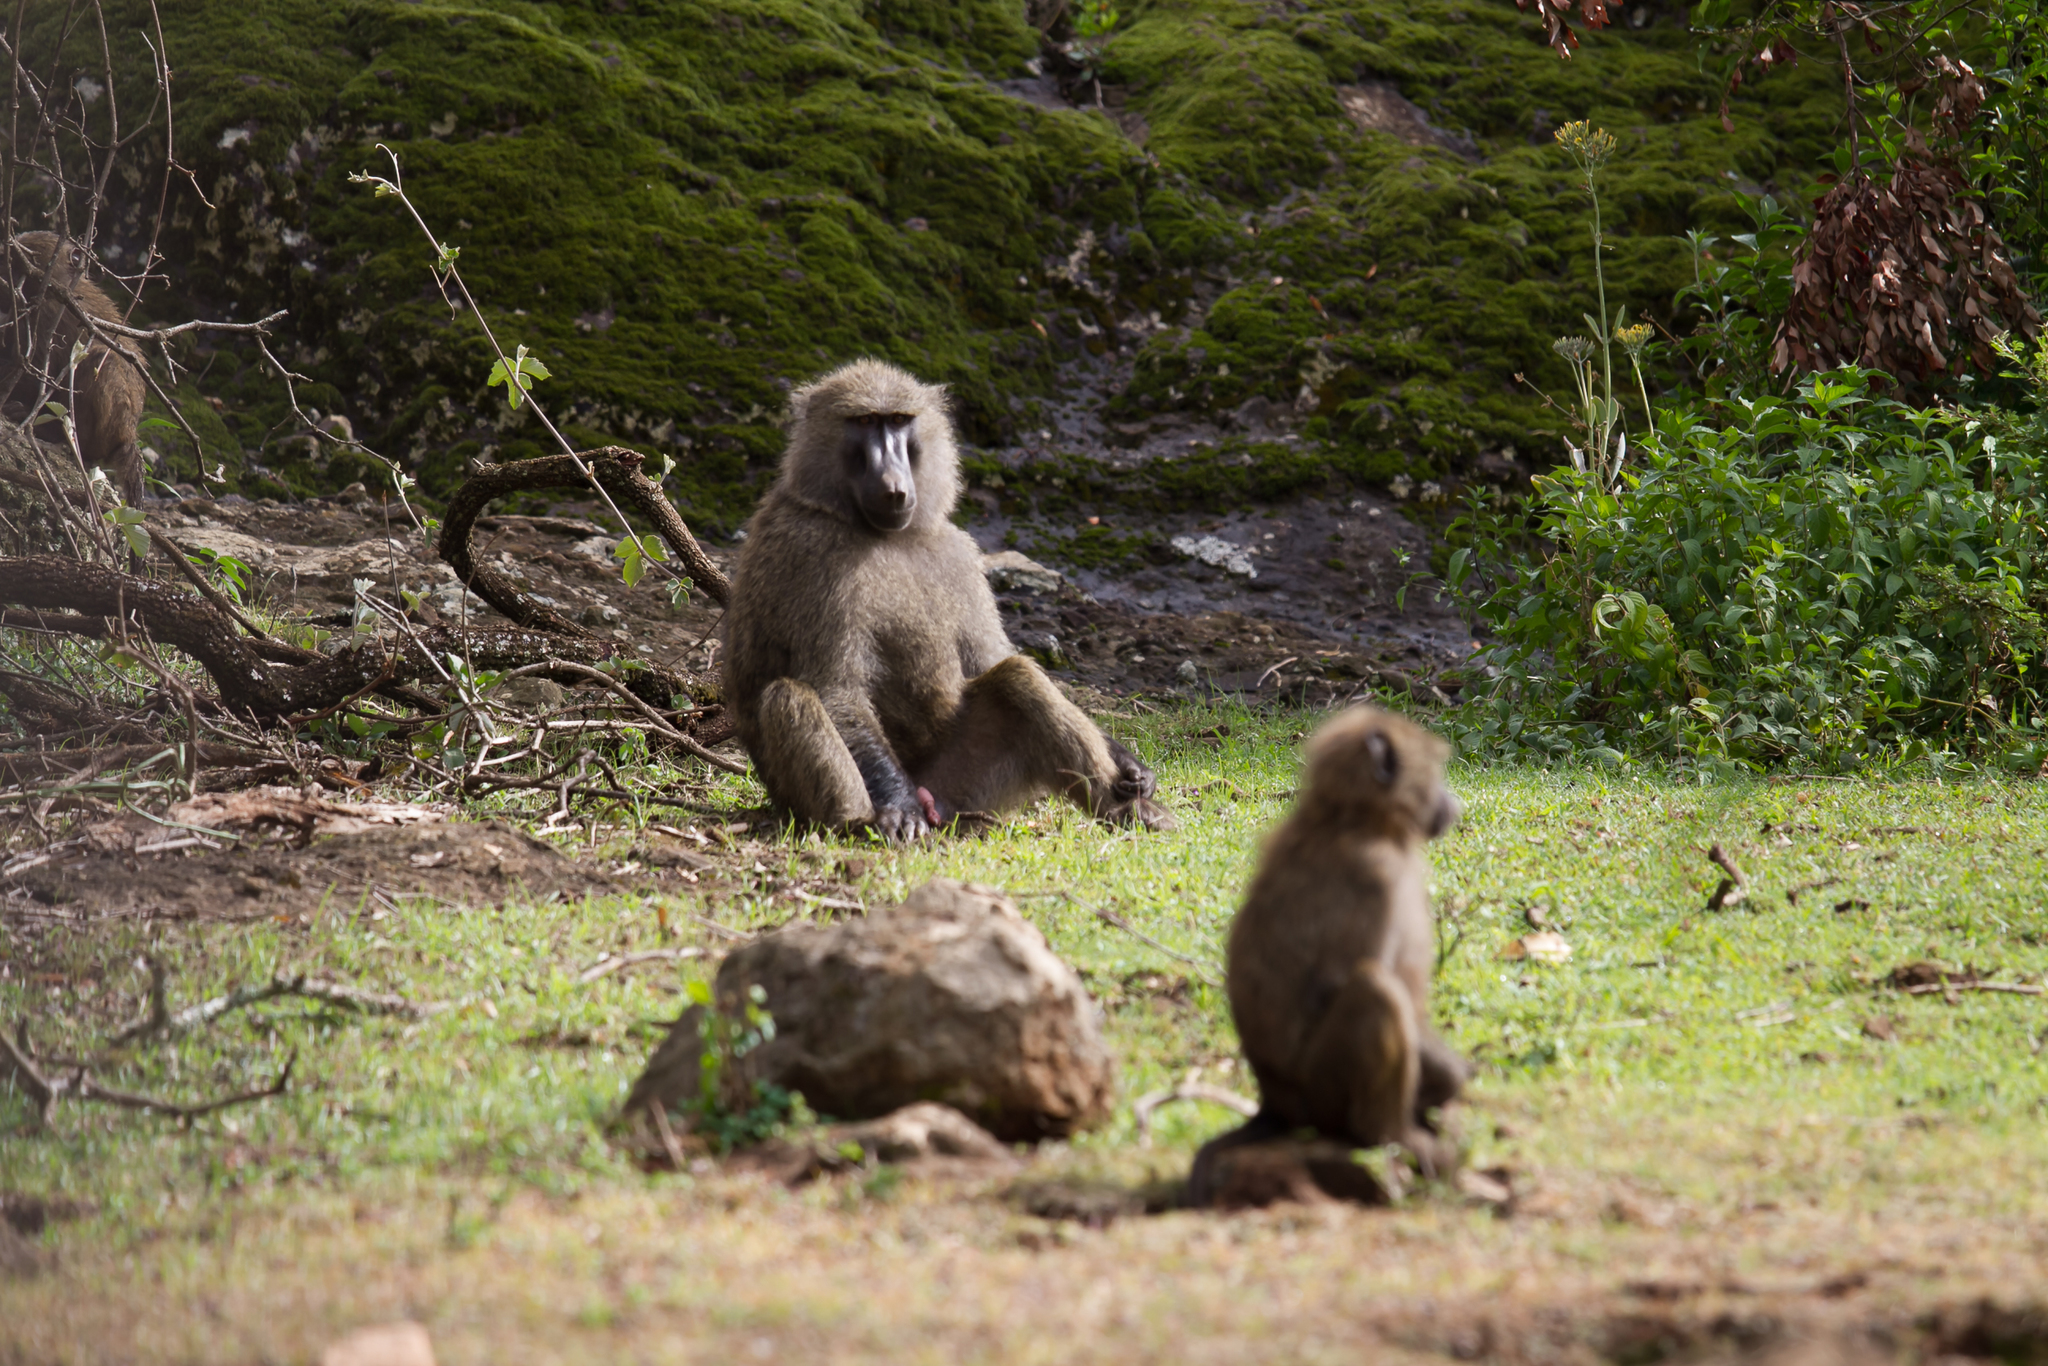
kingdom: Animalia
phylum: Chordata
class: Mammalia
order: Primates
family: Cercopithecidae
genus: Papio
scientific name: Papio anubis
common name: Olive baboon
